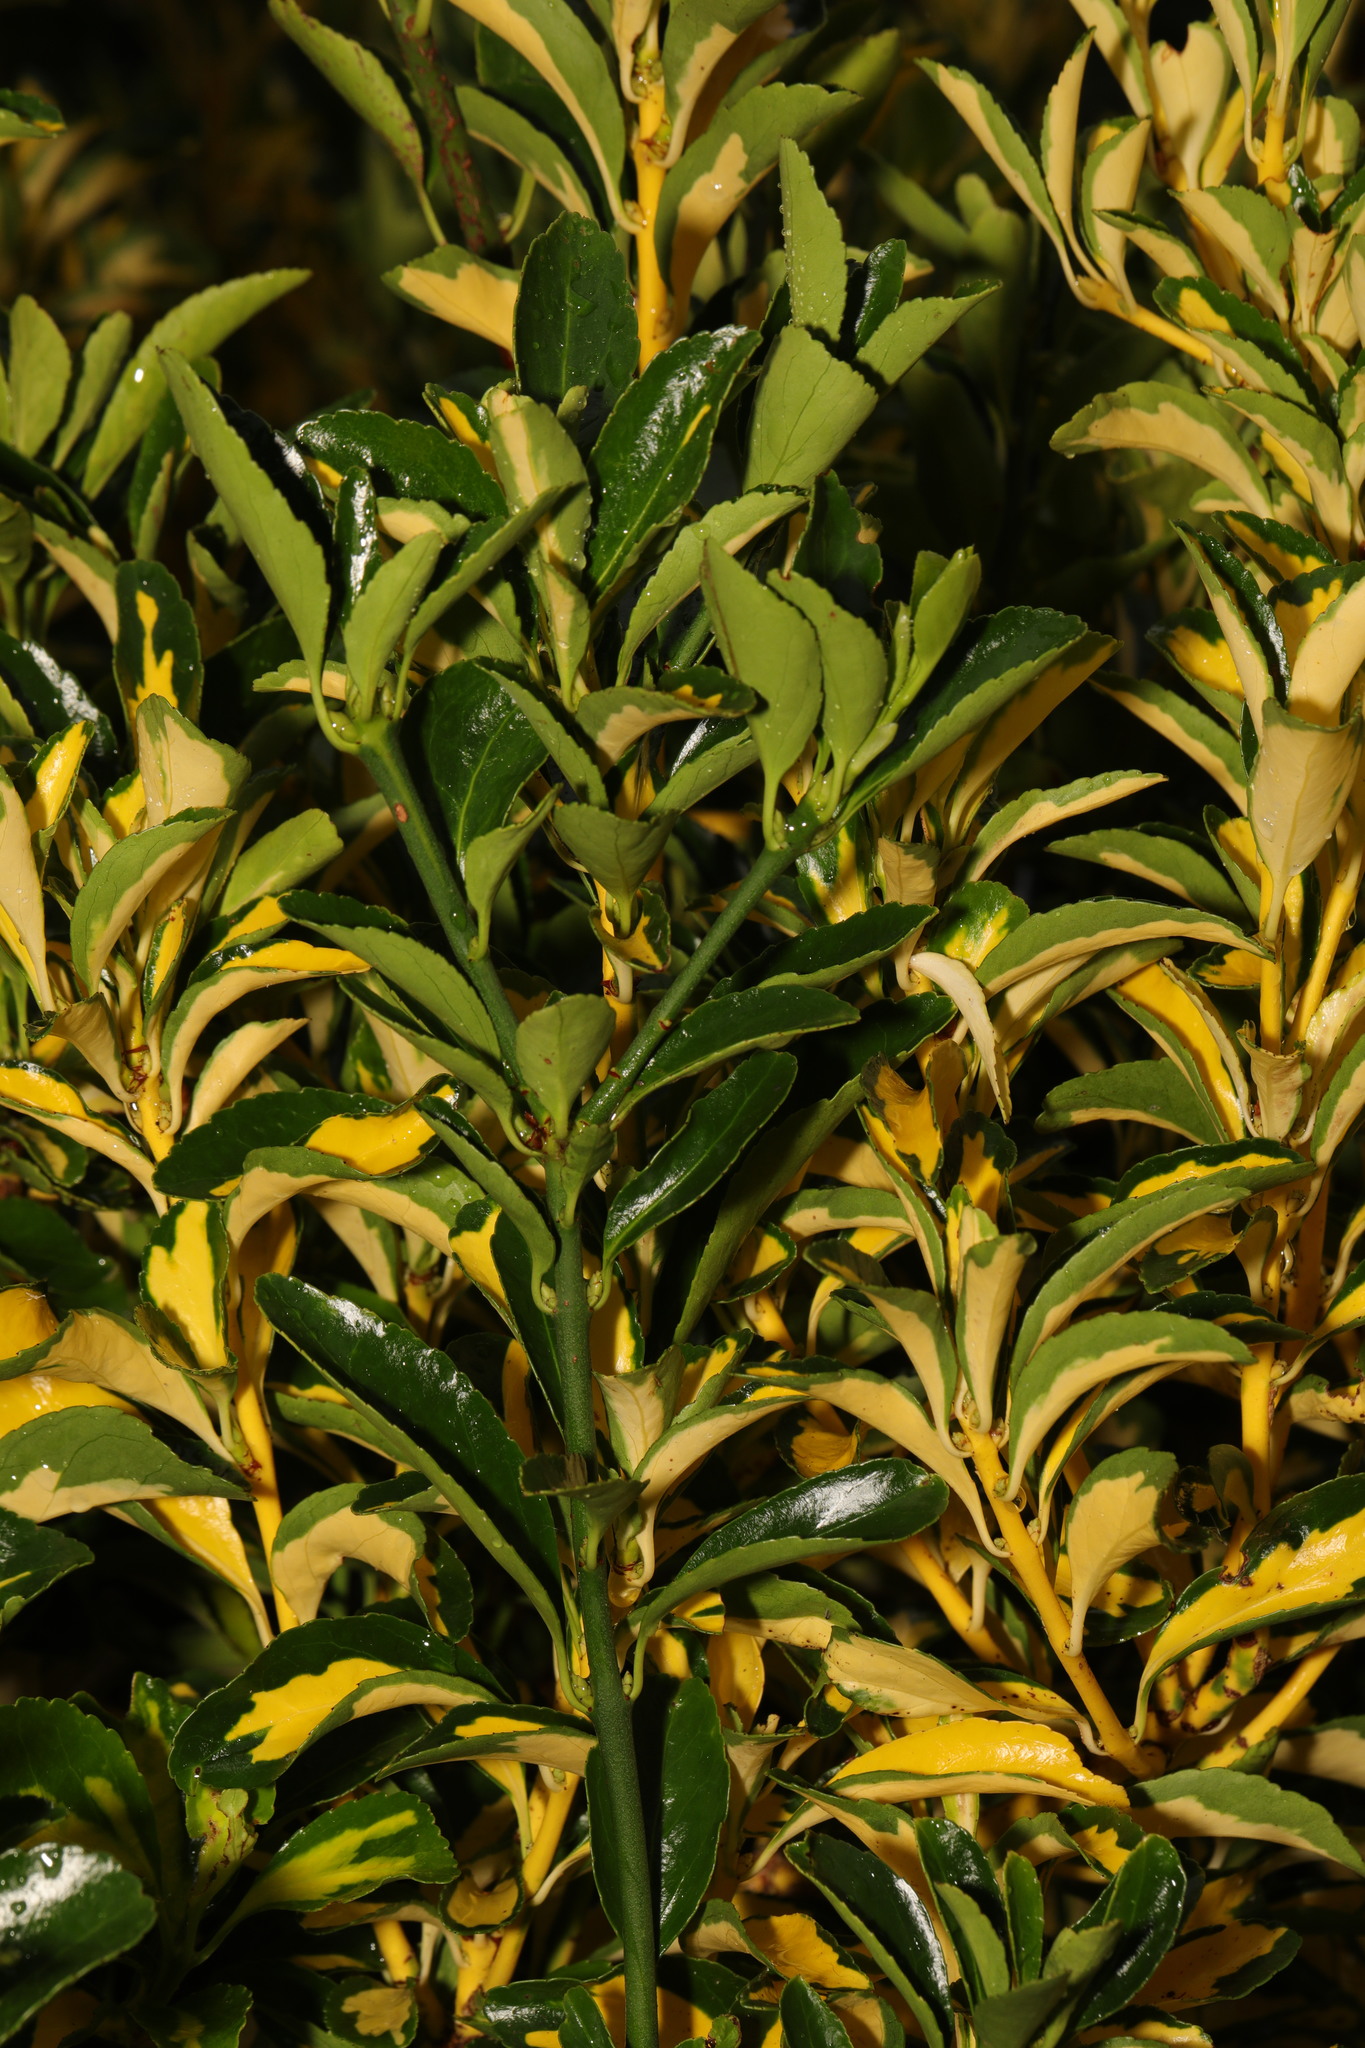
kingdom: Plantae
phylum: Tracheophyta
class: Magnoliopsida
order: Celastrales
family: Celastraceae
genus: Euonymus
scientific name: Euonymus japonicus
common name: Japanese spindletree
